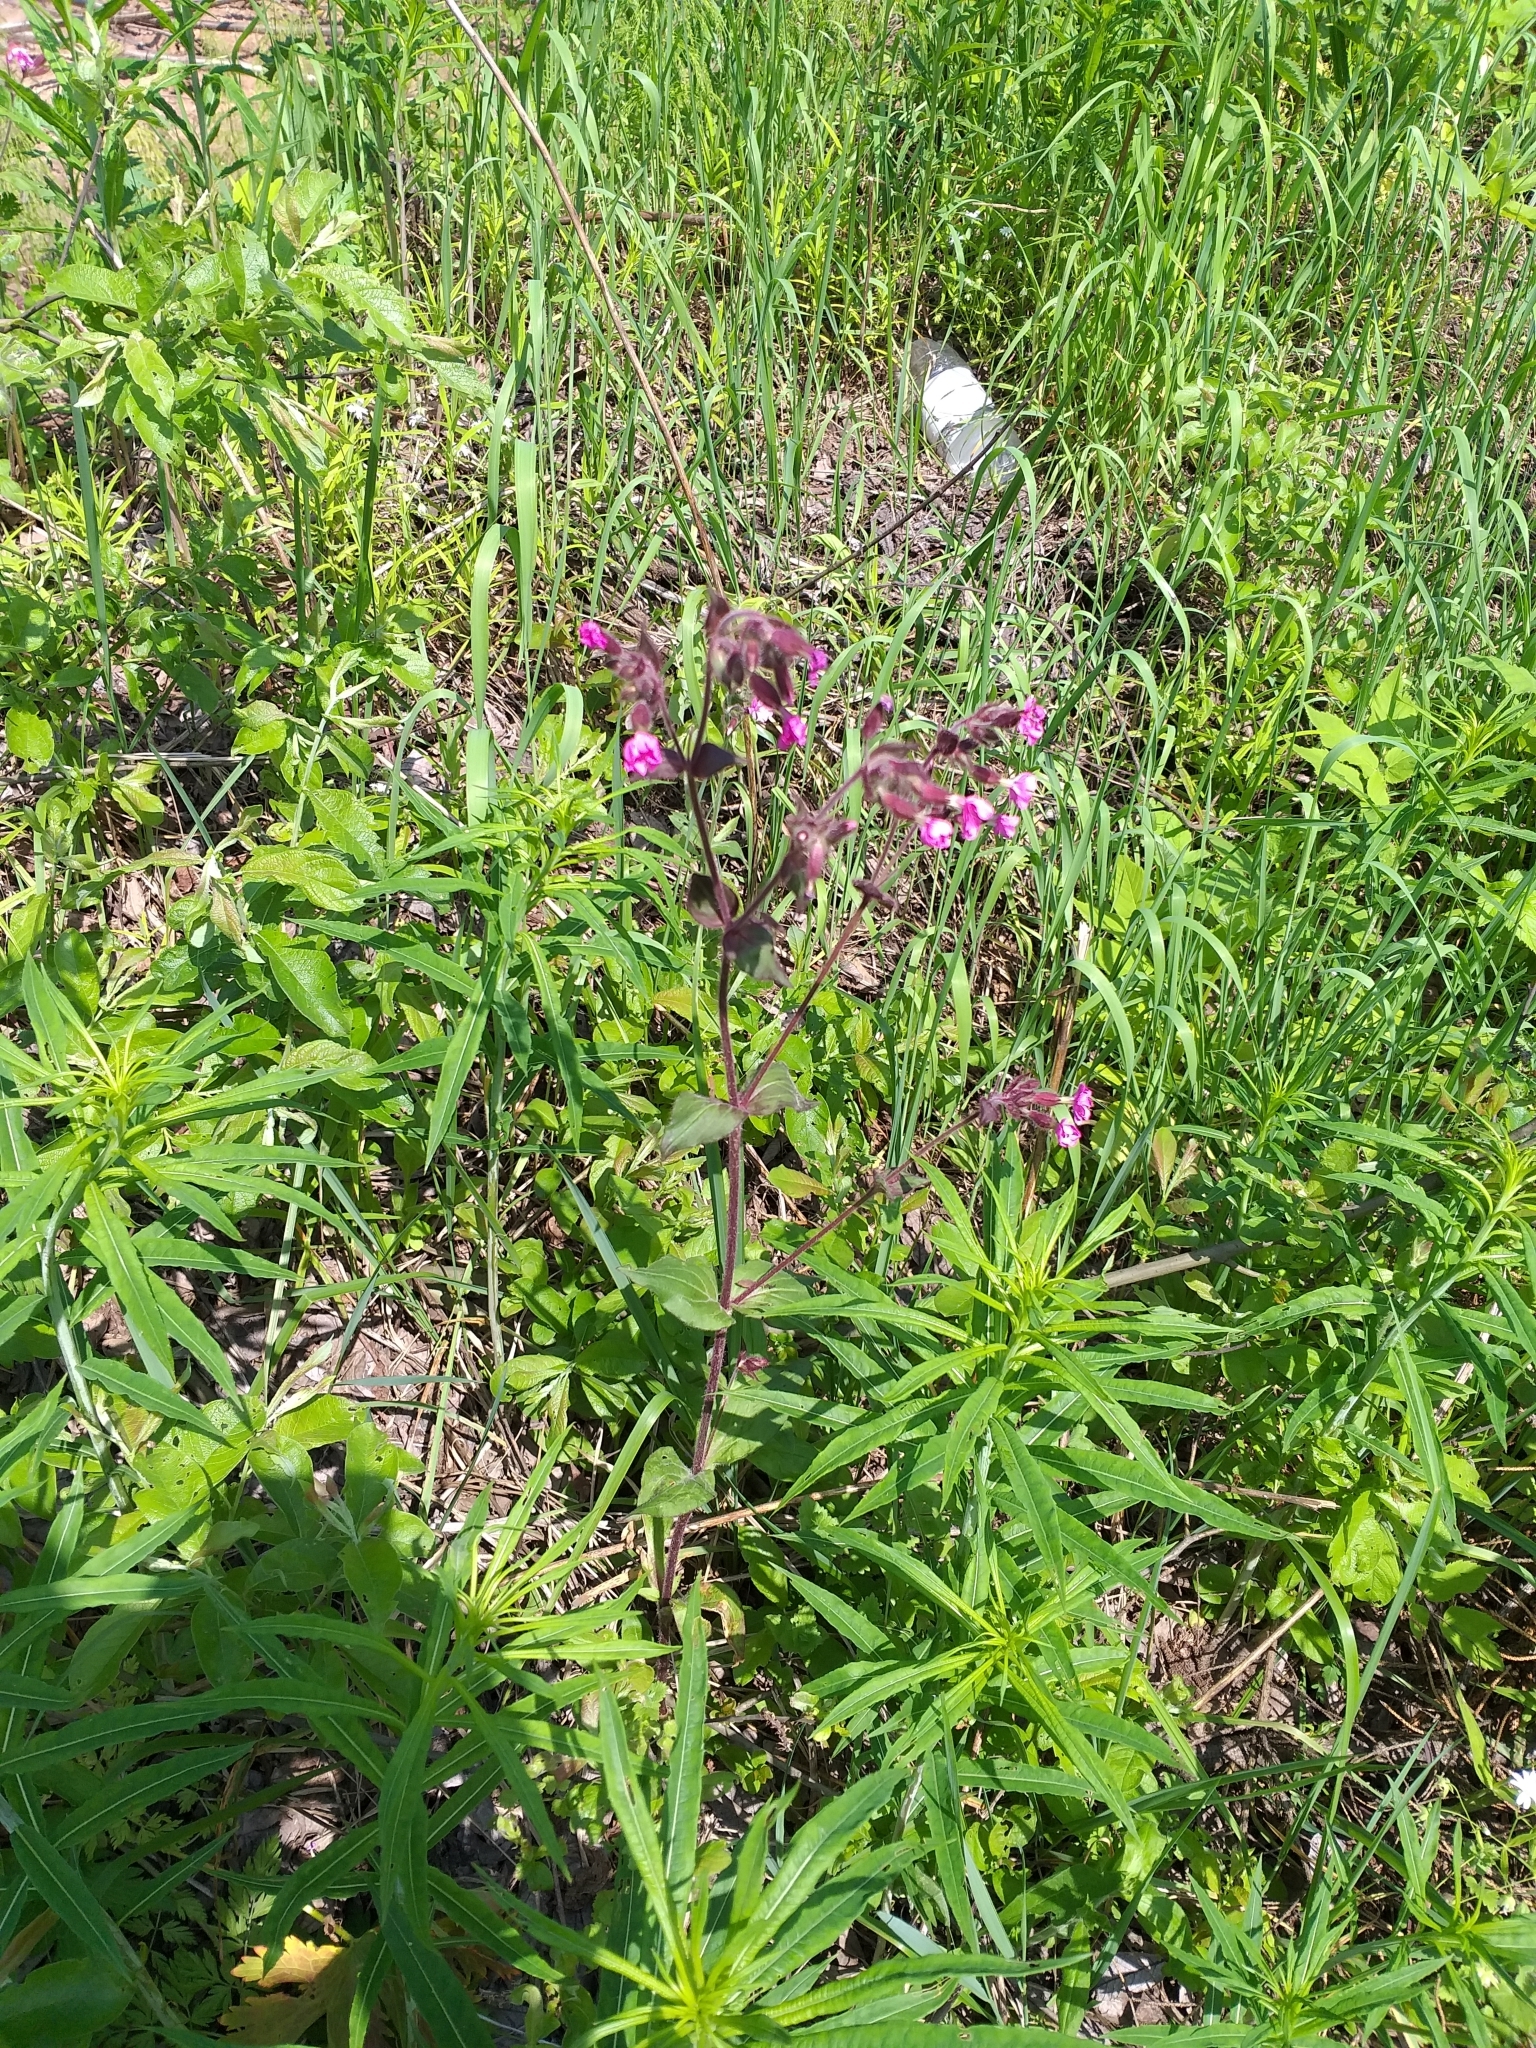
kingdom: Plantae
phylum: Tracheophyta
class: Magnoliopsida
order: Caryophyllales
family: Caryophyllaceae
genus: Silene
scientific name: Silene dioica
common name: Red campion
